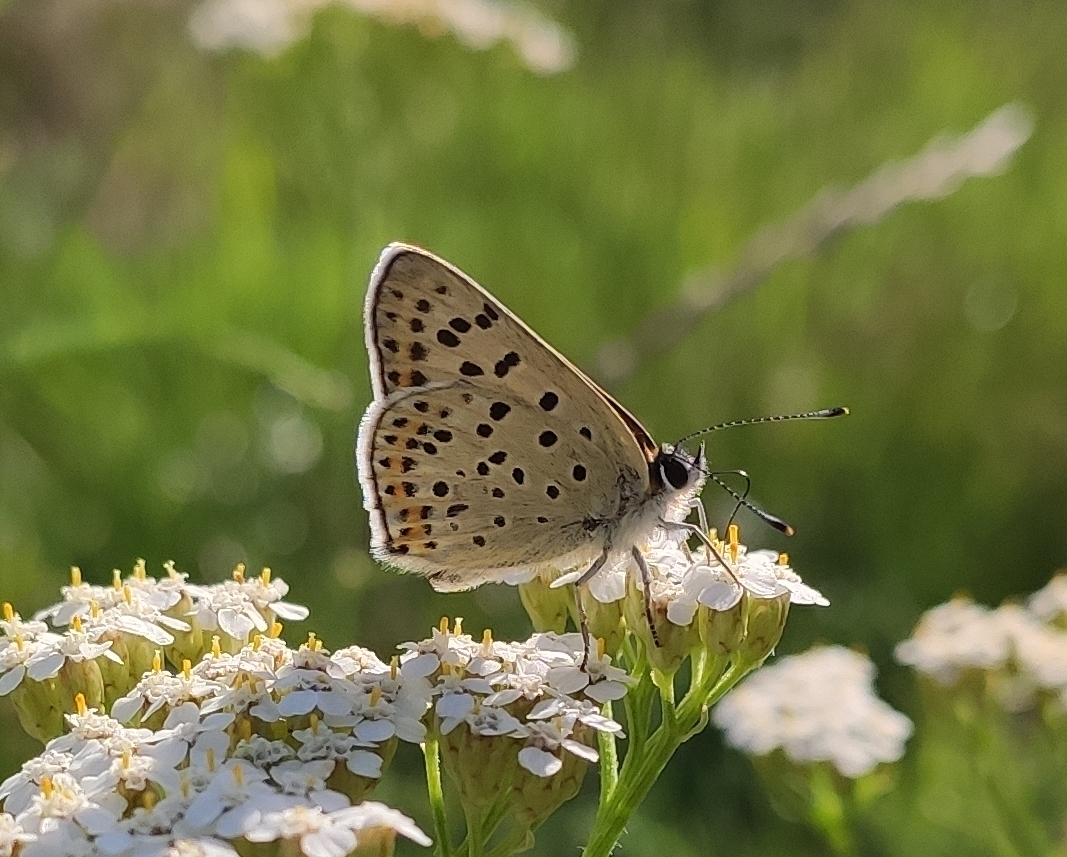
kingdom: Animalia
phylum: Arthropoda
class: Insecta
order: Lepidoptera
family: Lycaenidae
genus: Loweia
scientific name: Loweia tityrus
